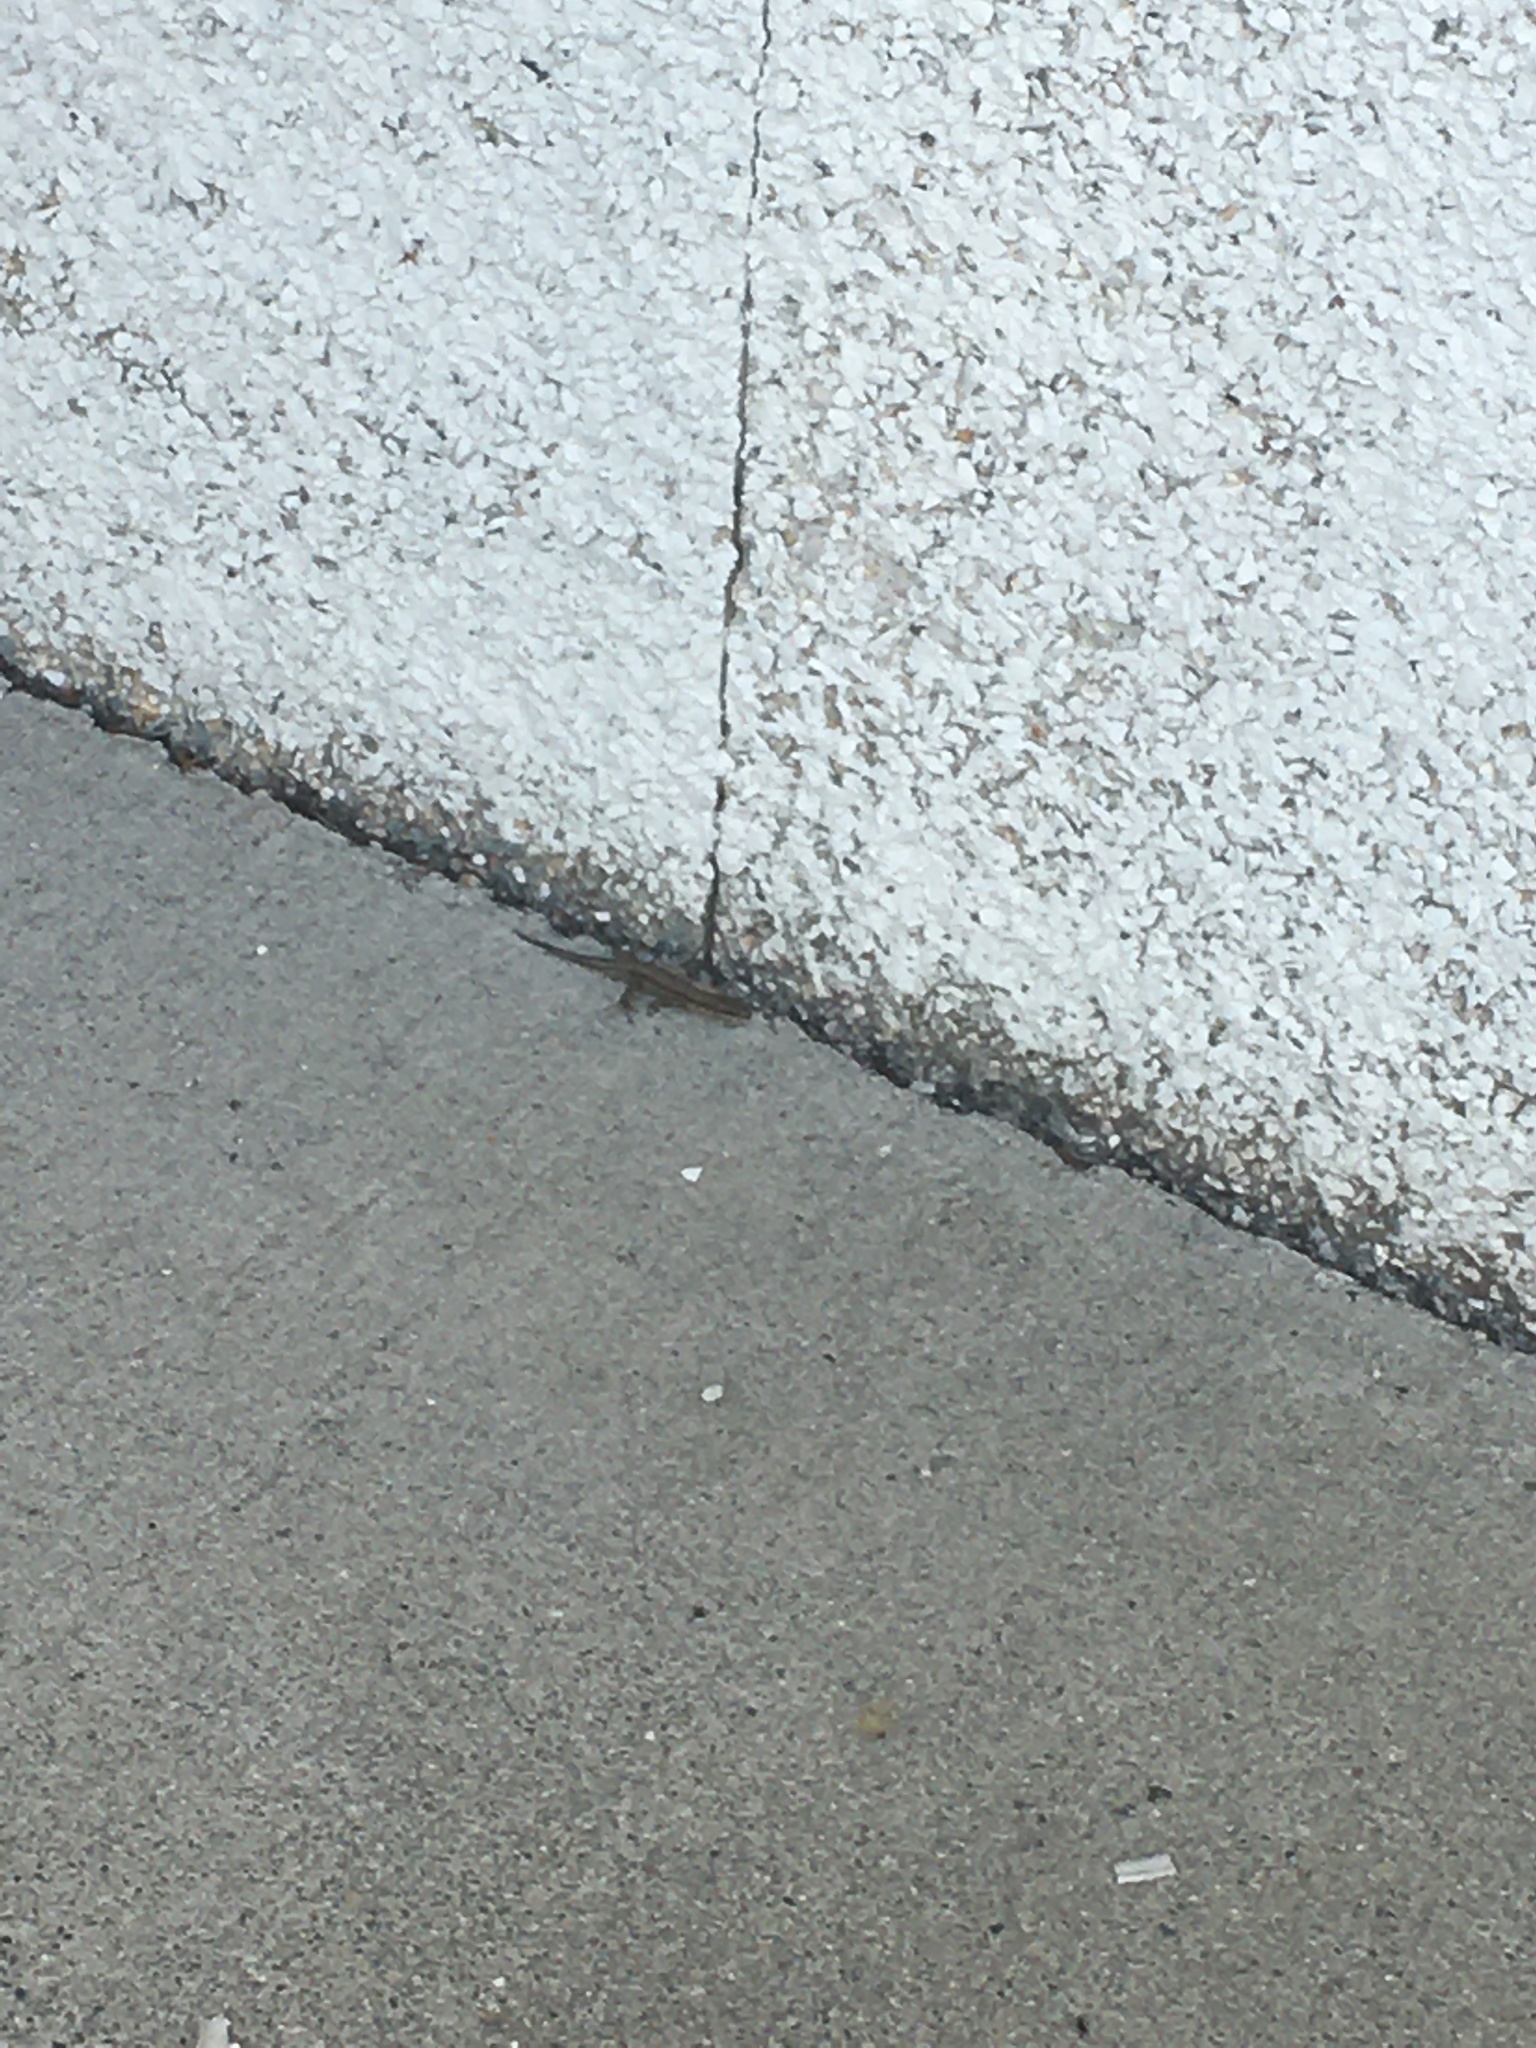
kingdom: Animalia
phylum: Chordata
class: Squamata
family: Lacertidae
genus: Podarcis
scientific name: Podarcis muralis
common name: Common wall lizard
